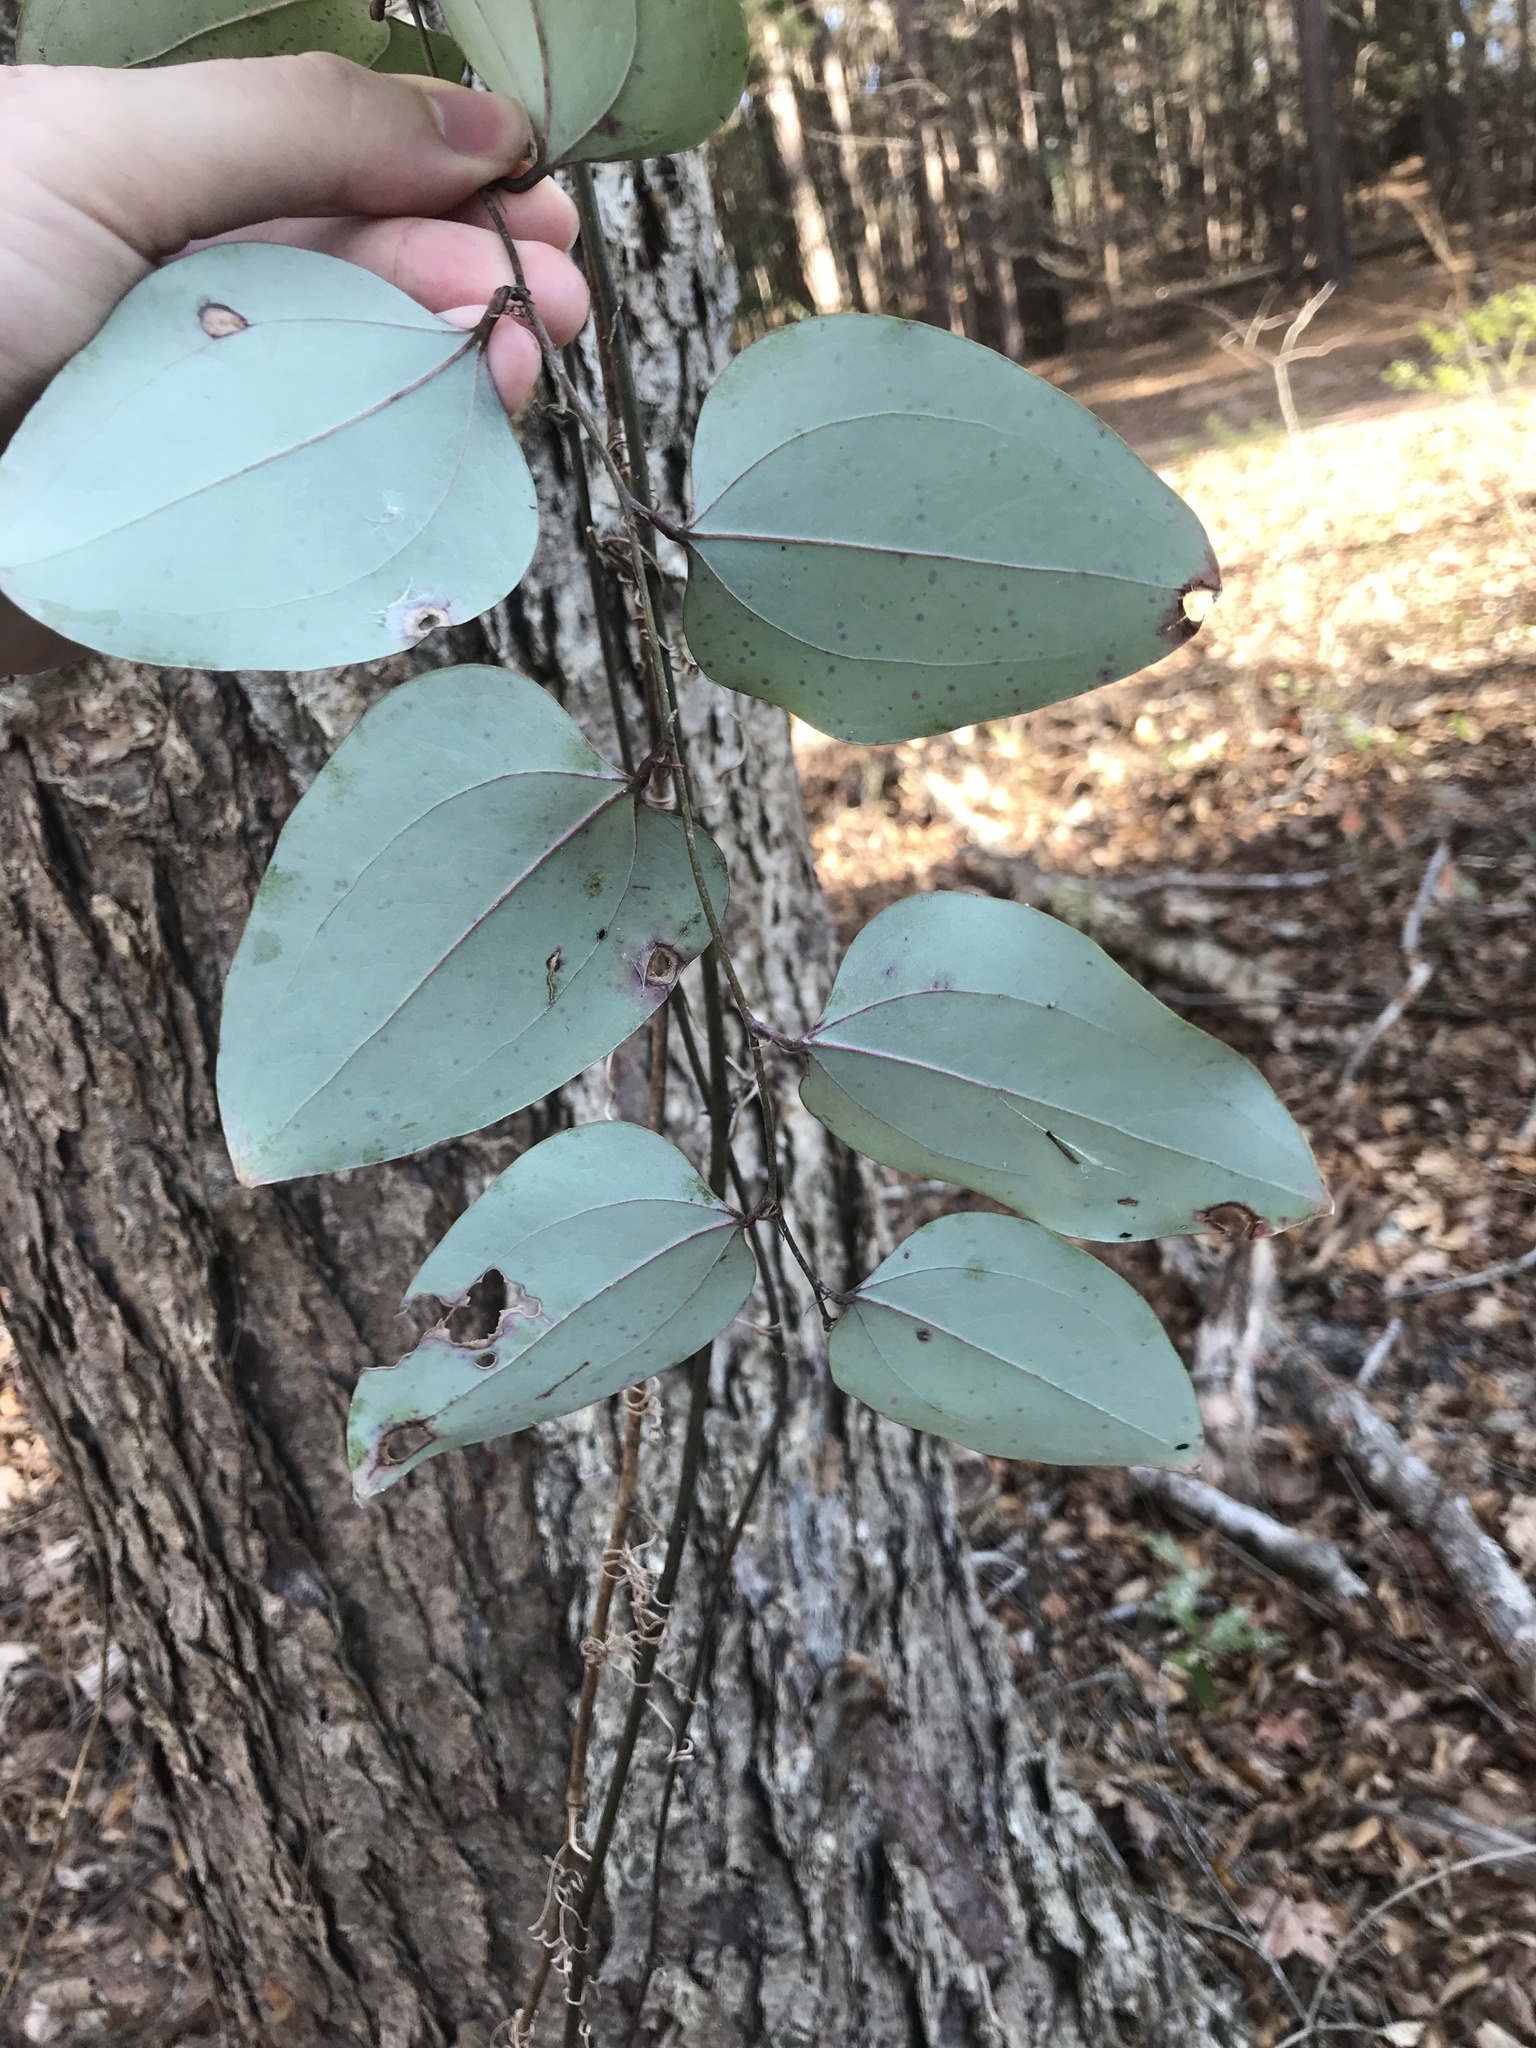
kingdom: Plantae
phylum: Tracheophyta
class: Liliopsida
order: Liliales
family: Smilacaceae
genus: Smilax
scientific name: Smilax glauca
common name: Cat greenbrier
